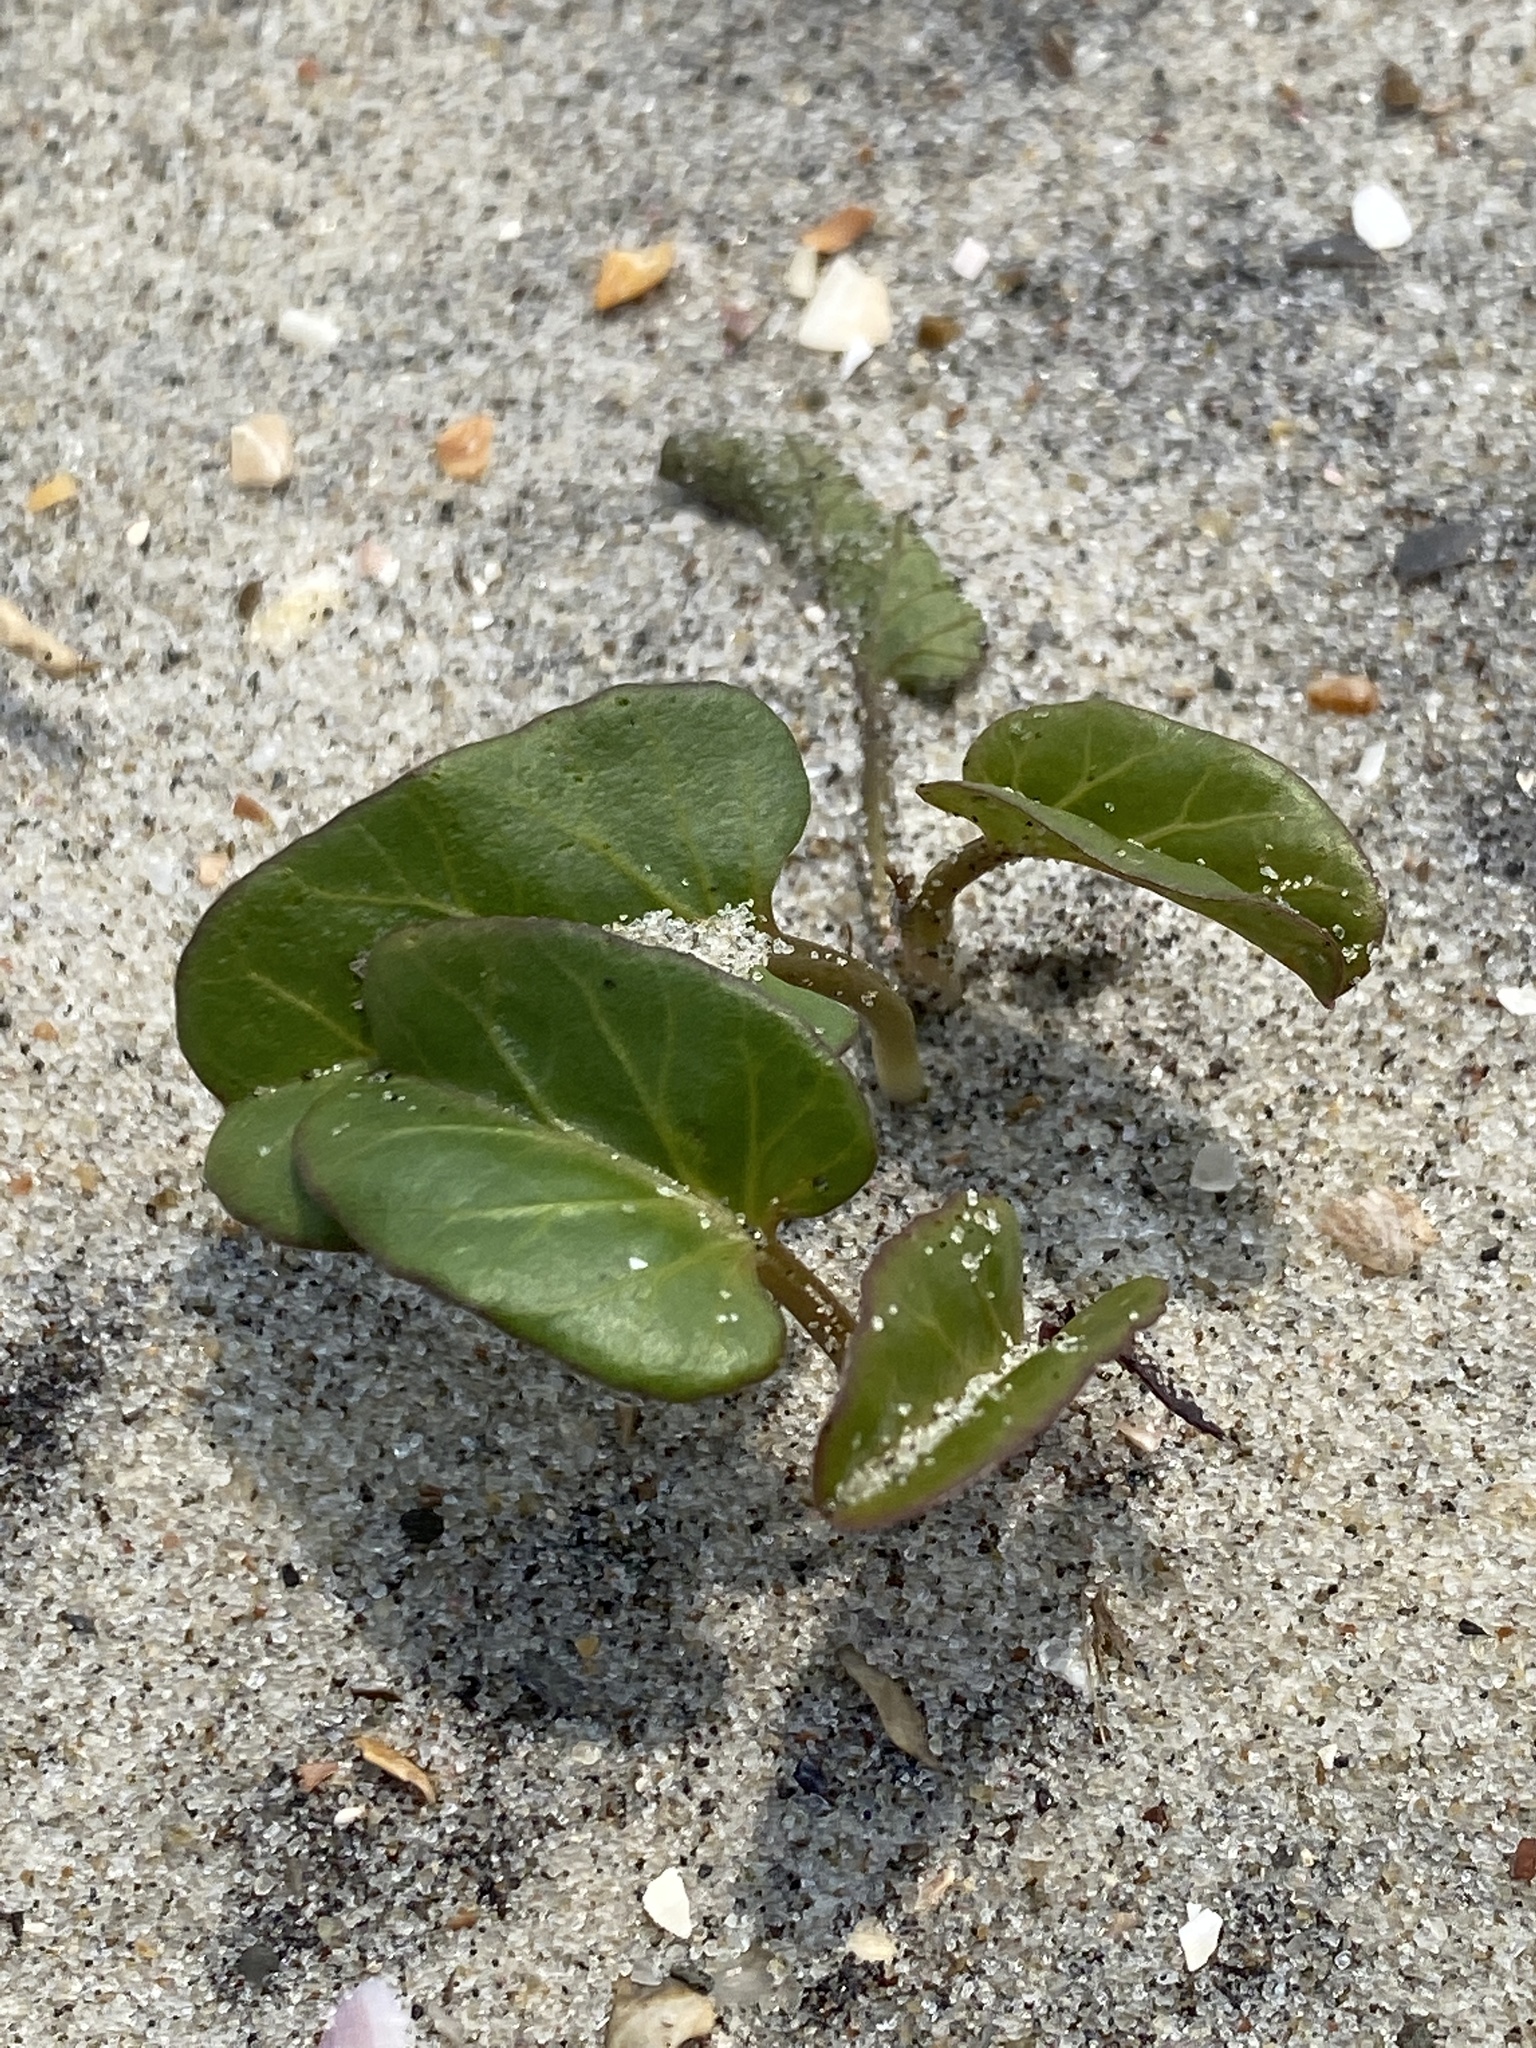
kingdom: Plantae
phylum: Tracheophyta
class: Magnoliopsida
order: Solanales
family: Convolvulaceae
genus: Ipomoea
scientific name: Ipomoea imperati
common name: Fiddle-leaf morning-glory
